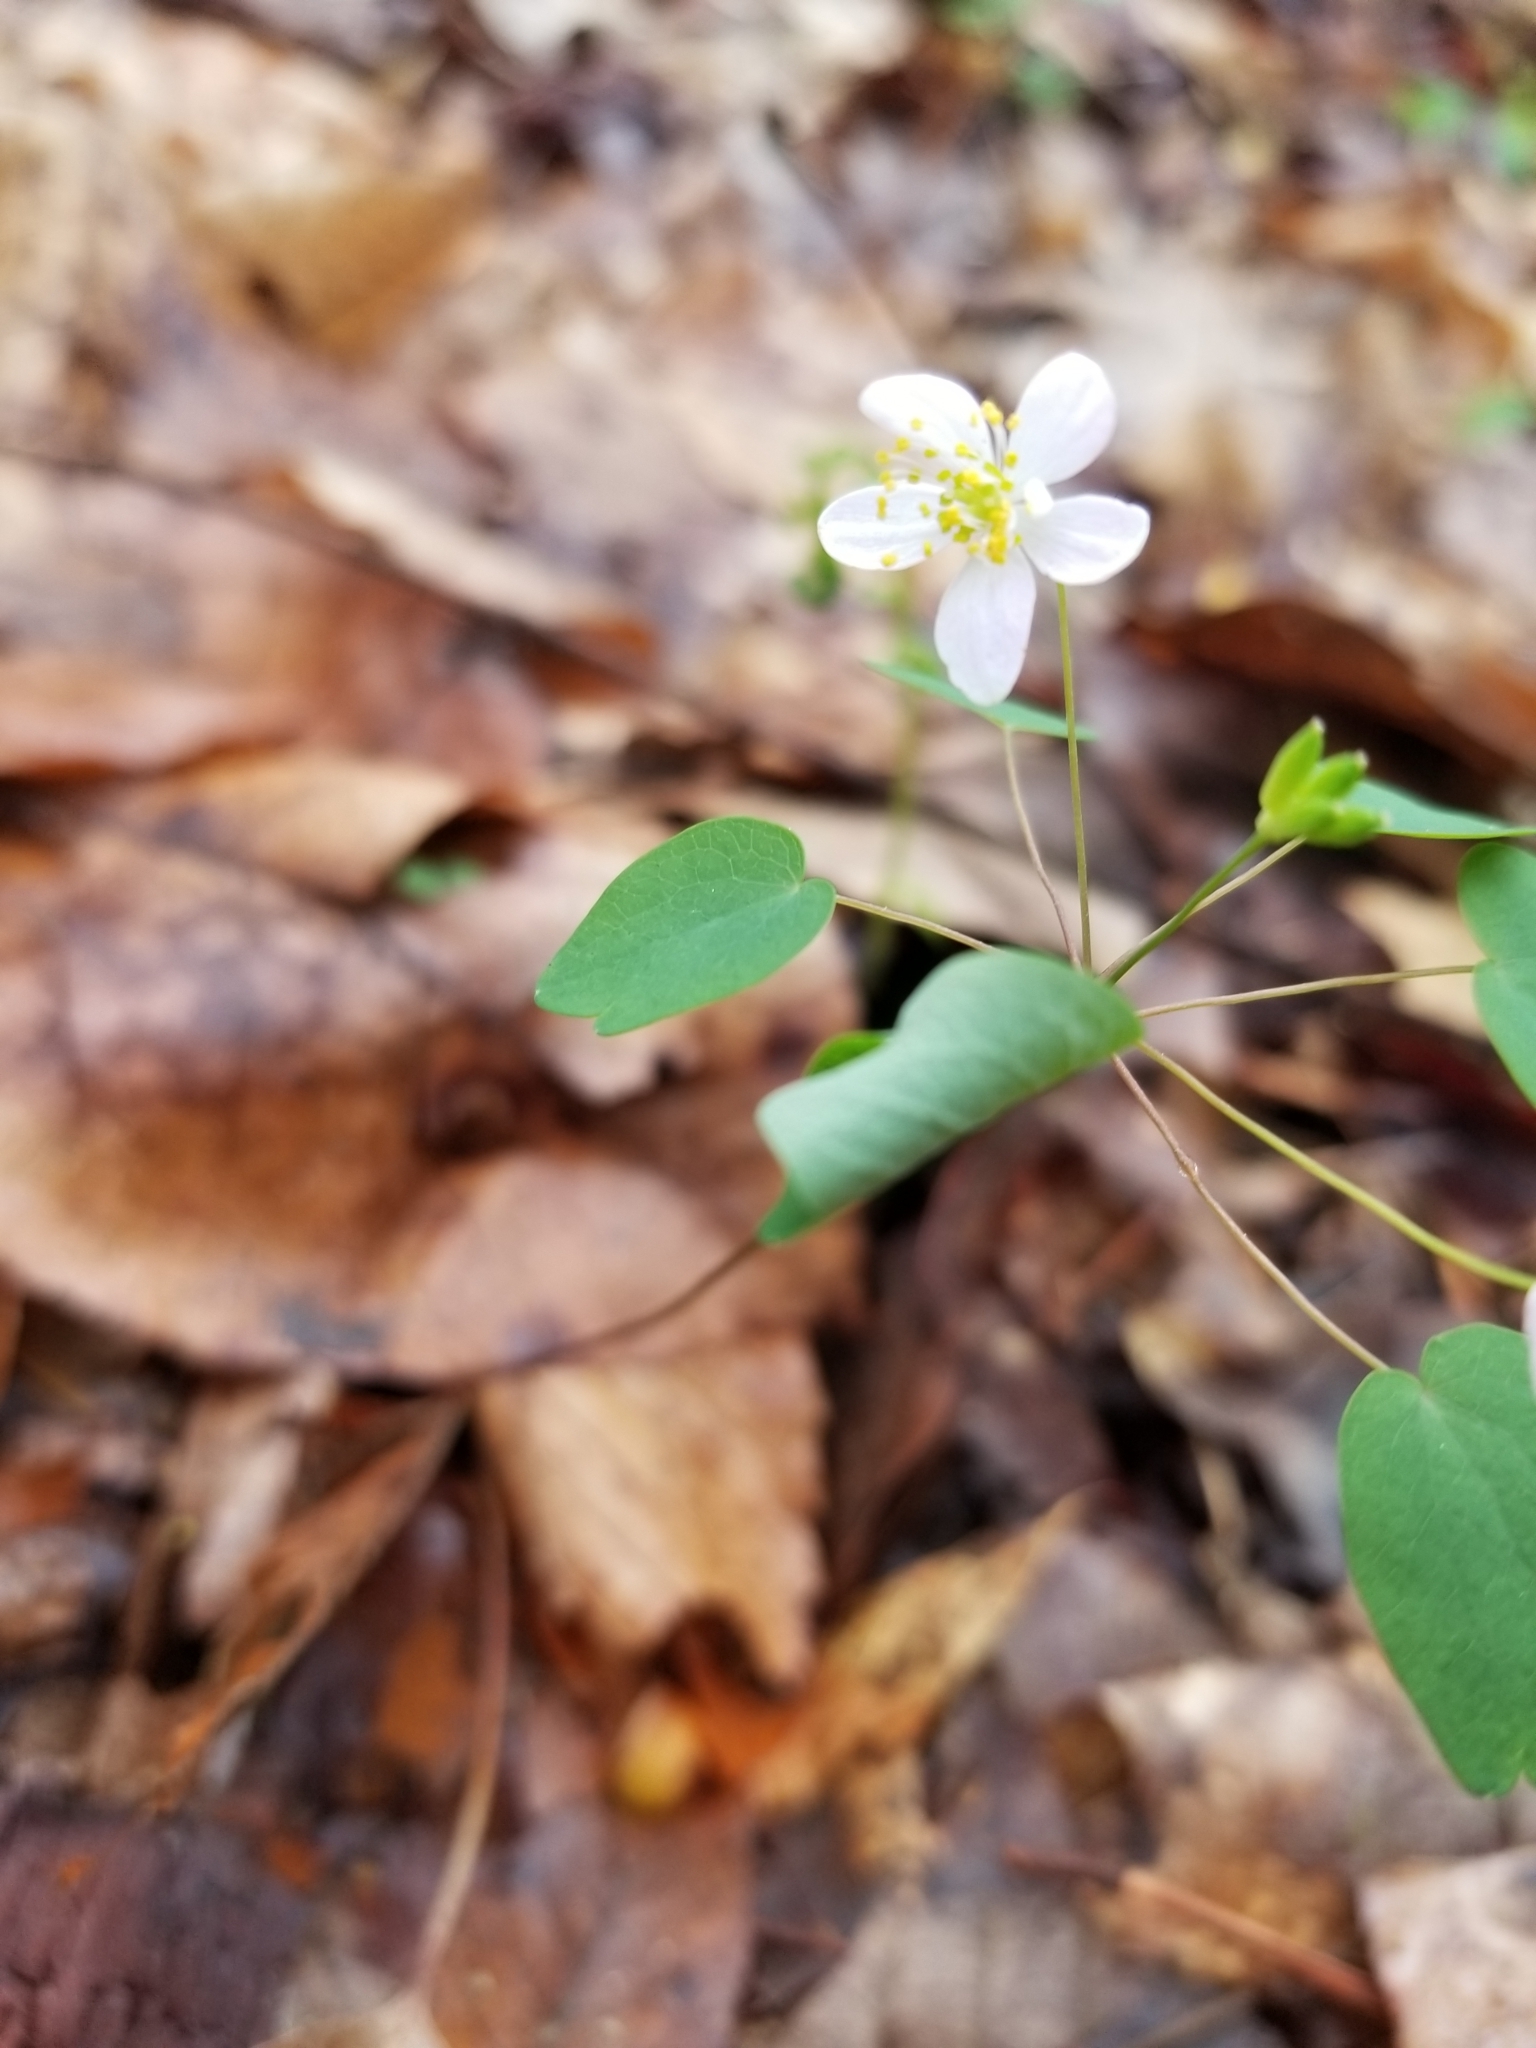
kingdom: Plantae
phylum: Tracheophyta
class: Magnoliopsida
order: Ranunculales
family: Ranunculaceae
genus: Thalictrum
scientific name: Thalictrum thalictroides
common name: Rue-anemone
